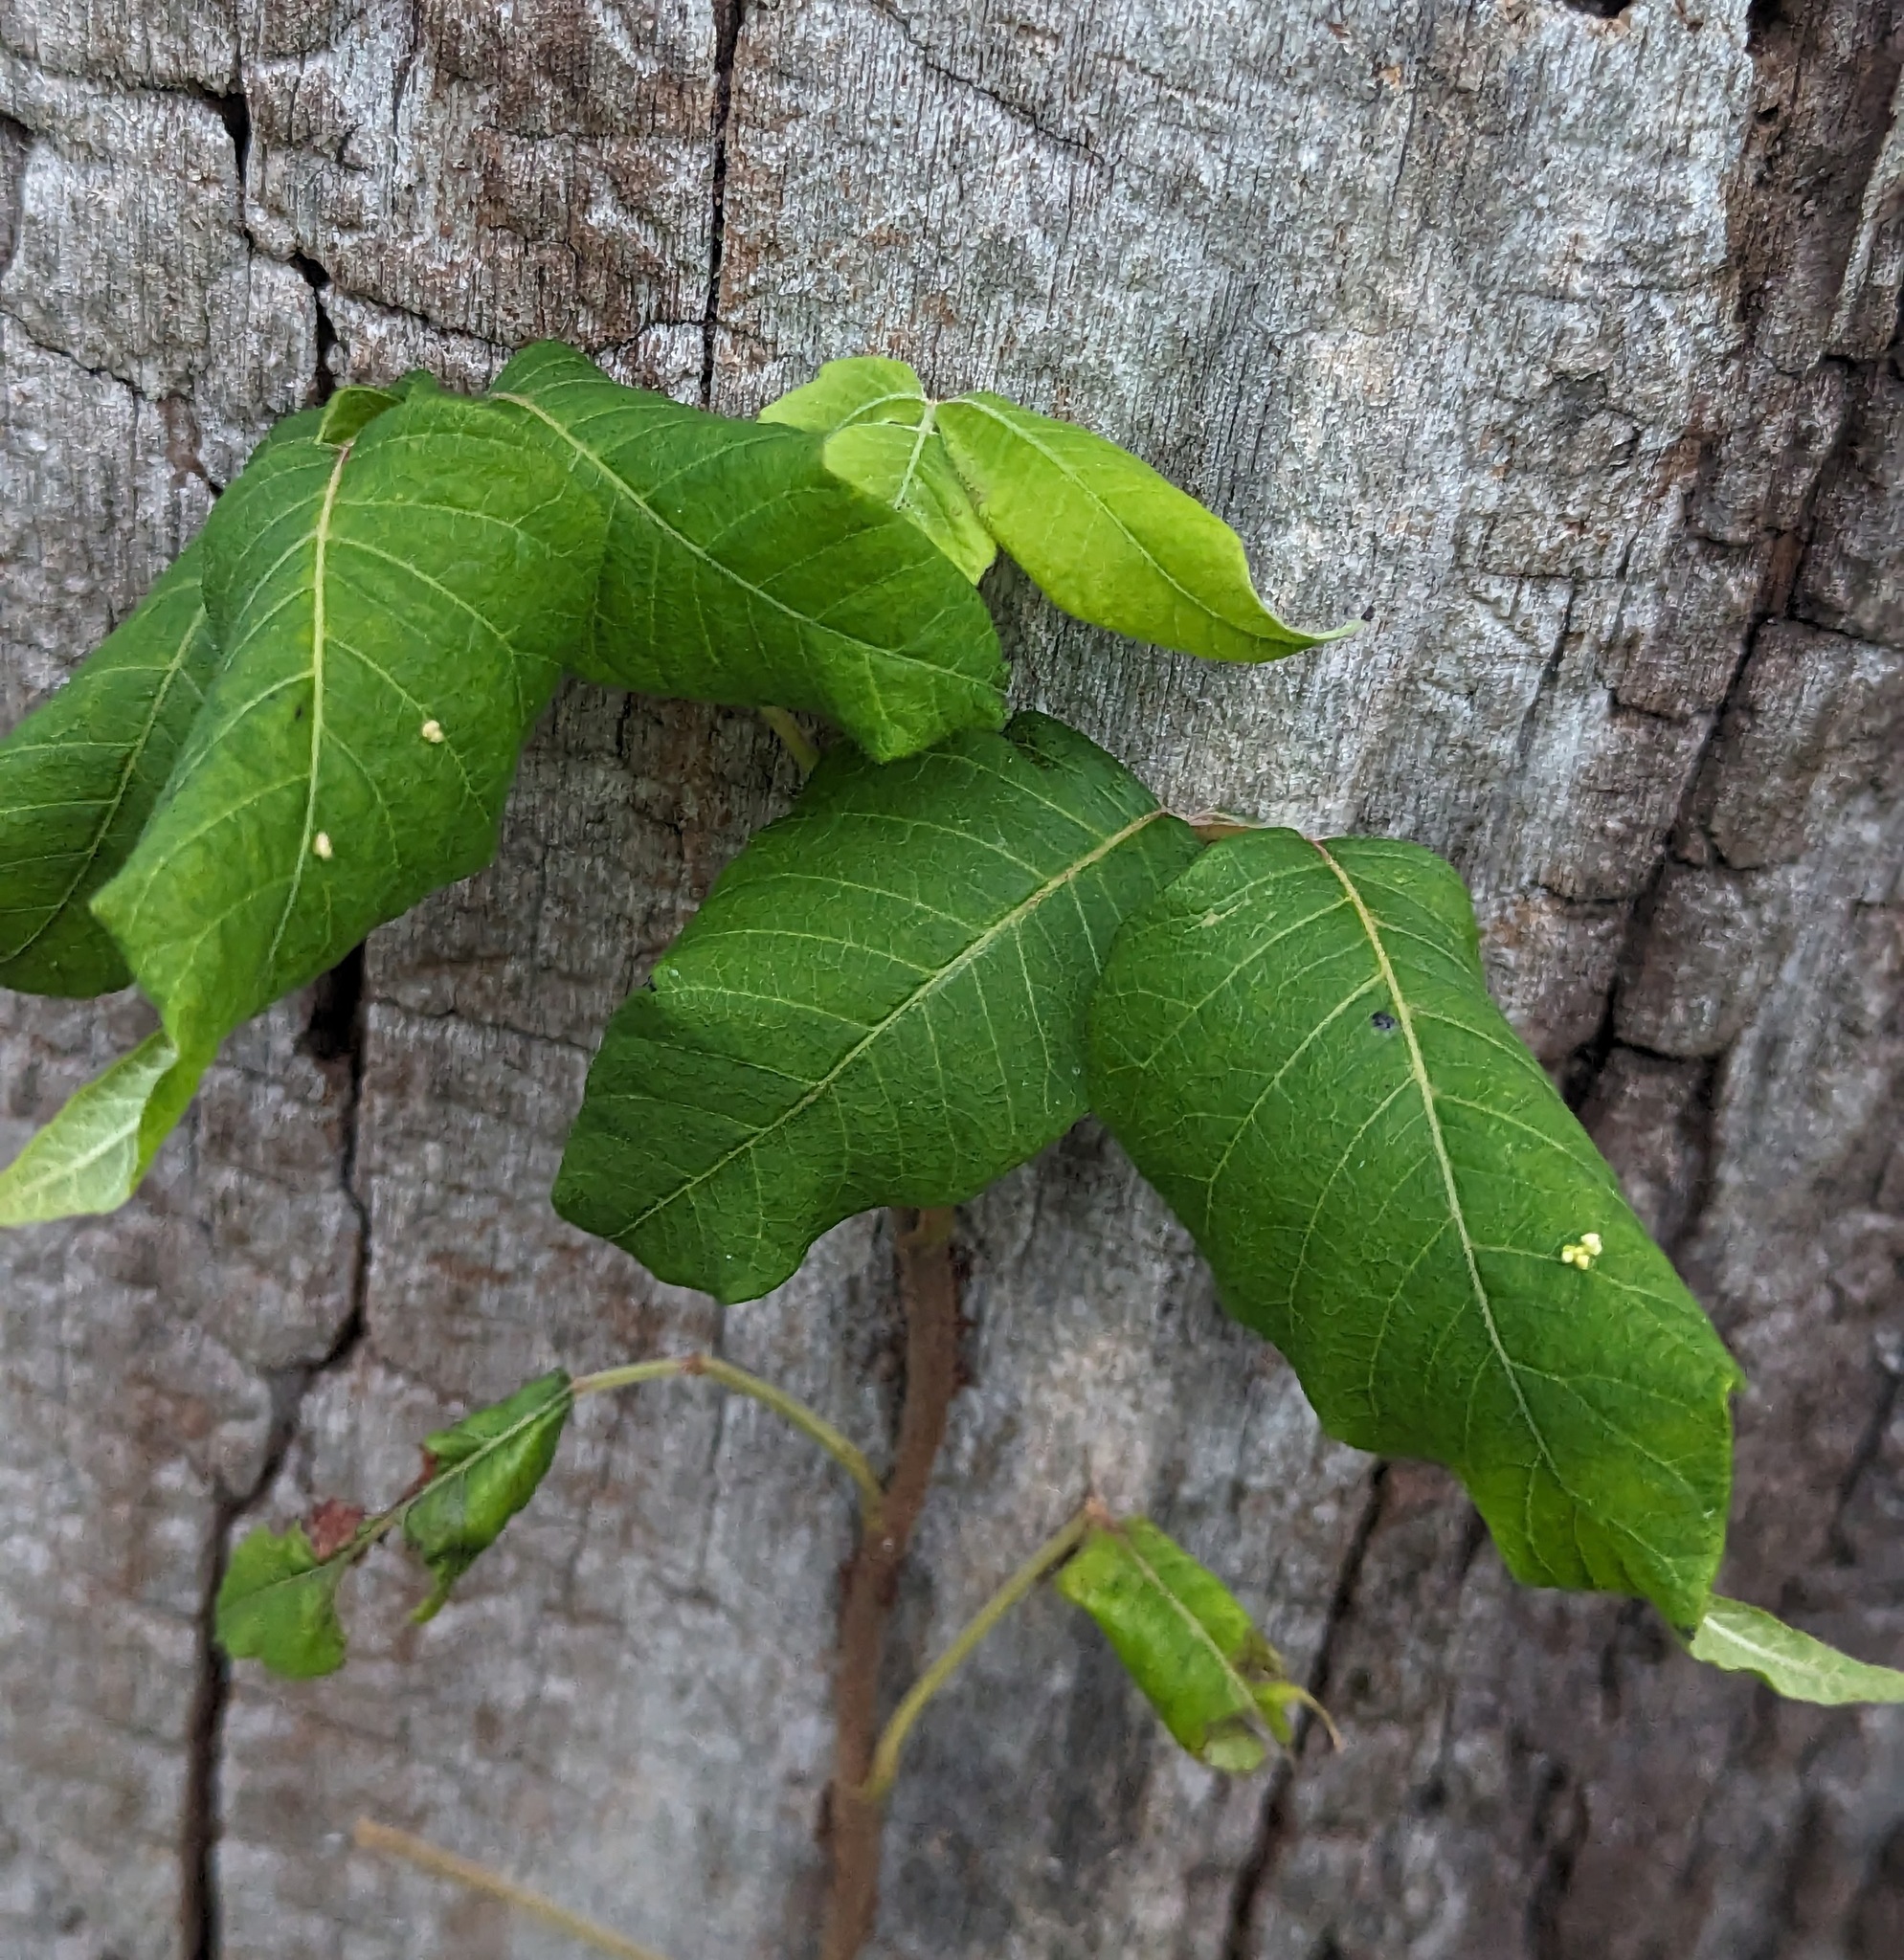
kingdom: Plantae
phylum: Tracheophyta
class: Magnoliopsida
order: Sapindales
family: Anacardiaceae
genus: Toxicodendron
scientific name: Toxicodendron radicans
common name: Poison ivy
